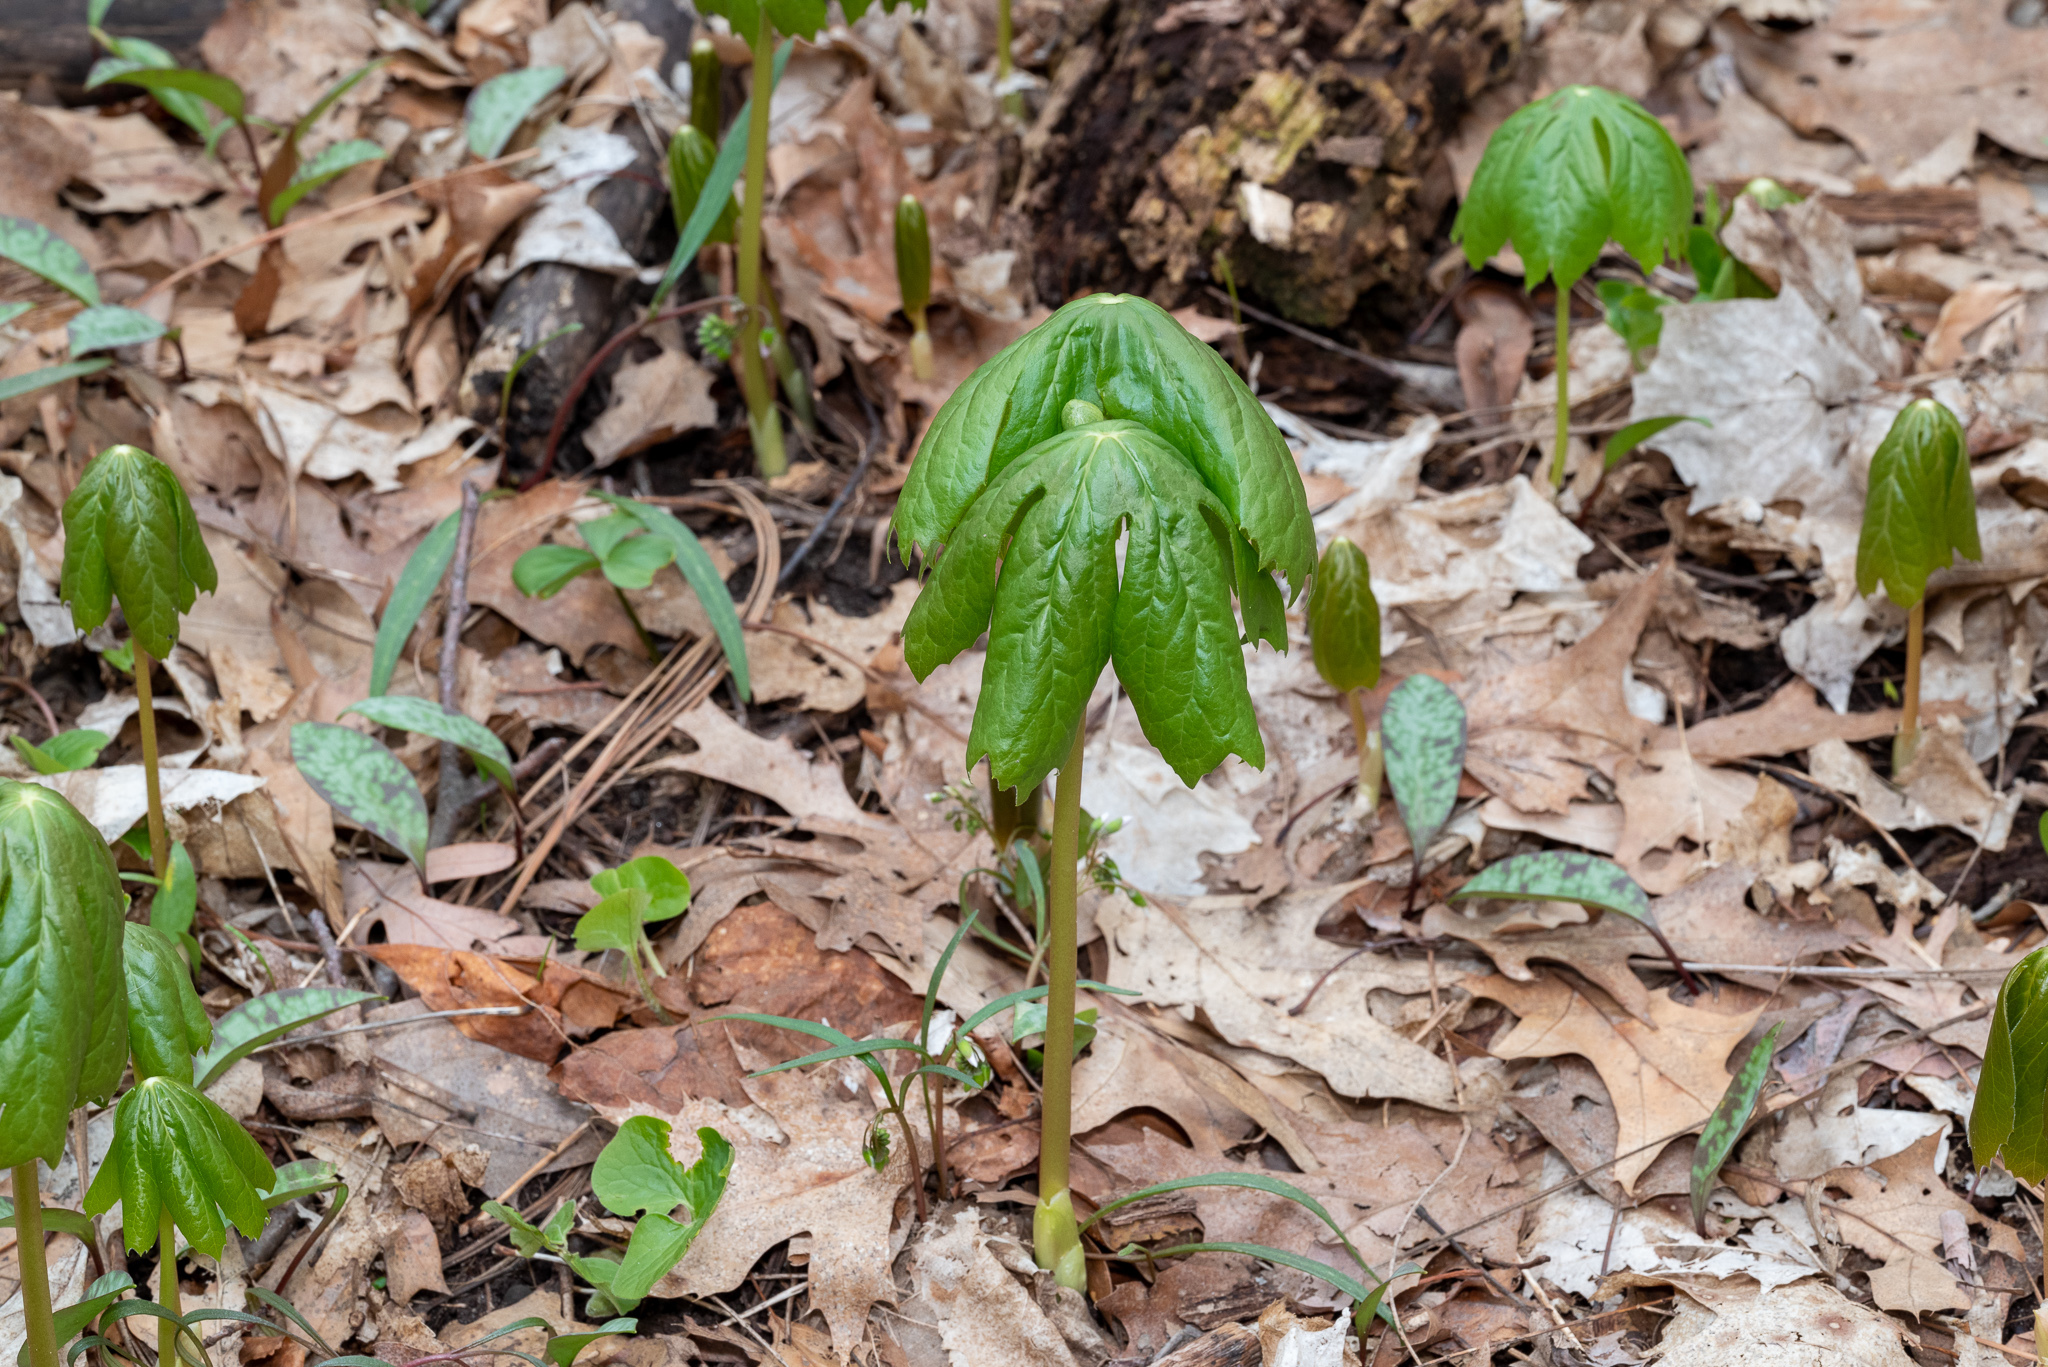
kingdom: Plantae
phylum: Tracheophyta
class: Magnoliopsida
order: Ranunculales
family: Berberidaceae
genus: Podophyllum
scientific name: Podophyllum peltatum
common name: Wild mandrake
